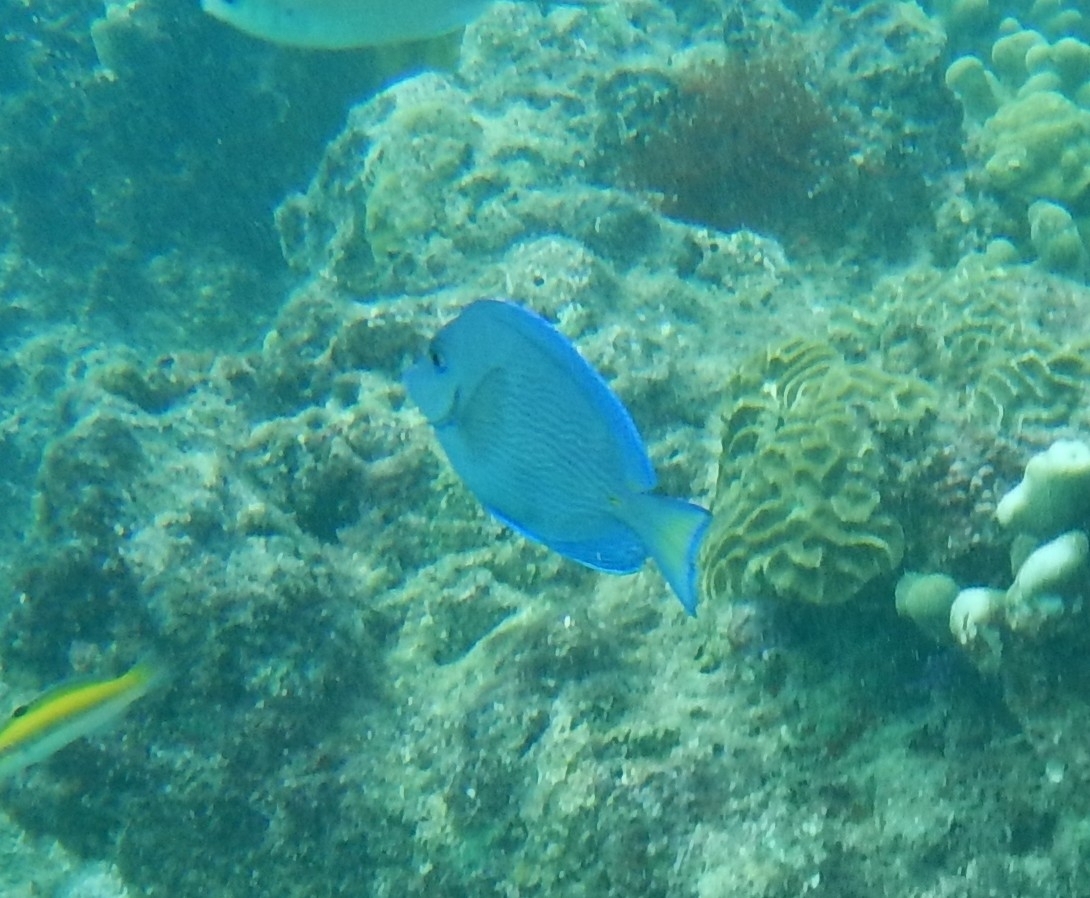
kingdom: Animalia
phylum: Chordata
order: Perciformes
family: Acanthuridae
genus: Acanthurus
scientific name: Acanthurus coeruleus
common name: Blue tang
